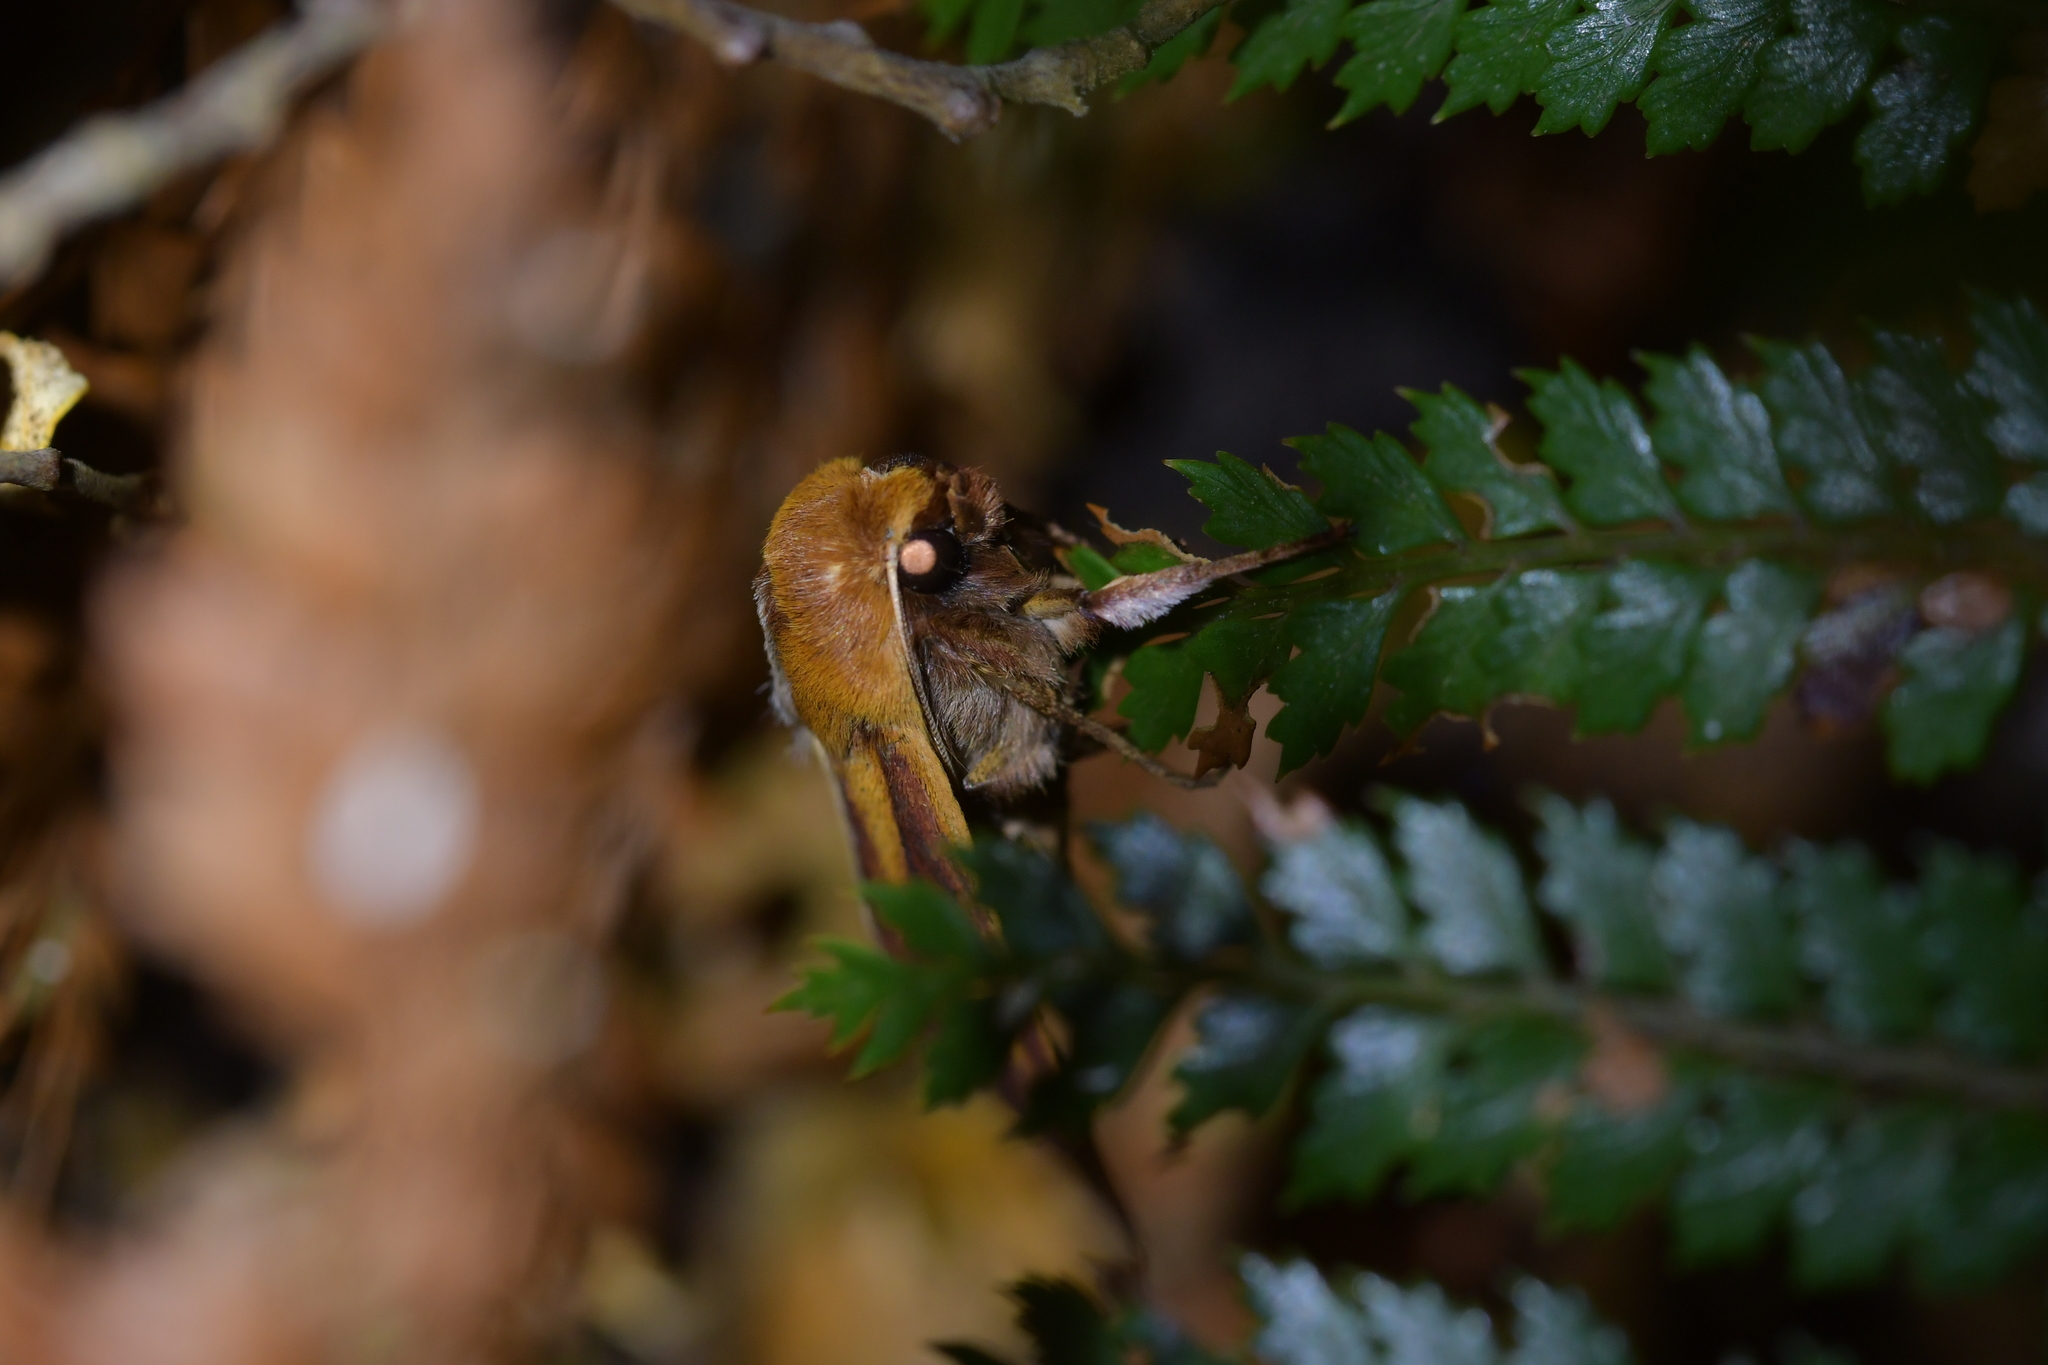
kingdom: Animalia
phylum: Arthropoda
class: Insecta
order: Lepidoptera
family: Noctuidae
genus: Ichneutica
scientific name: Ichneutica
